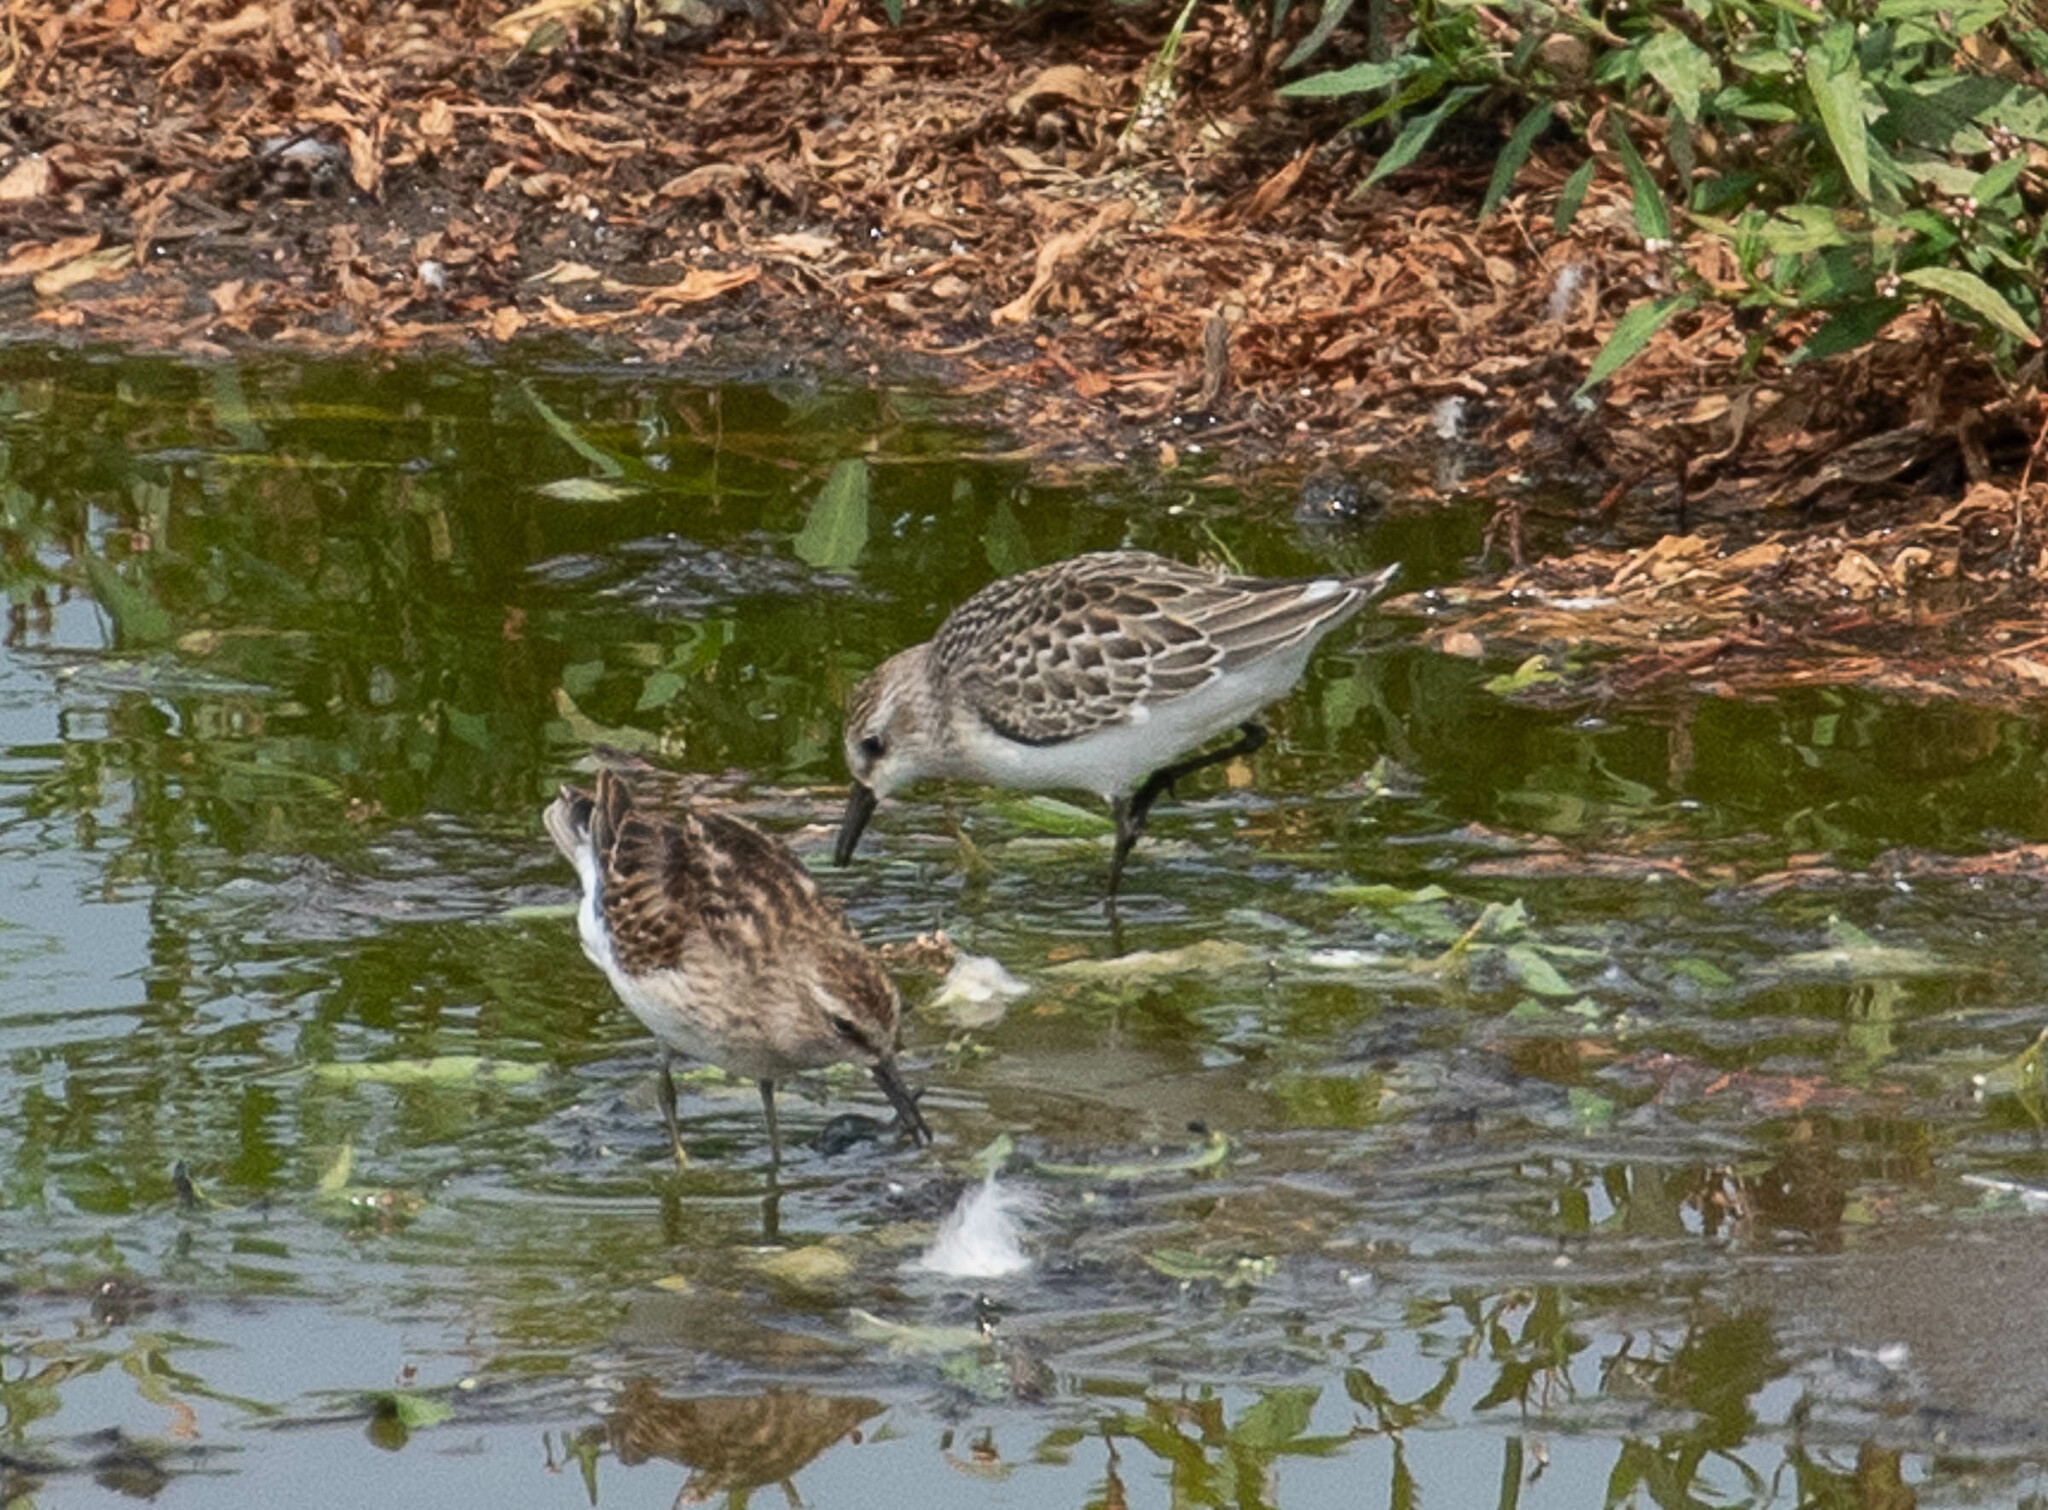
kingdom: Animalia
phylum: Chordata
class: Aves
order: Charadriiformes
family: Scolopacidae
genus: Calidris
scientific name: Calidris pusilla
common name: Semipalmated sandpiper
